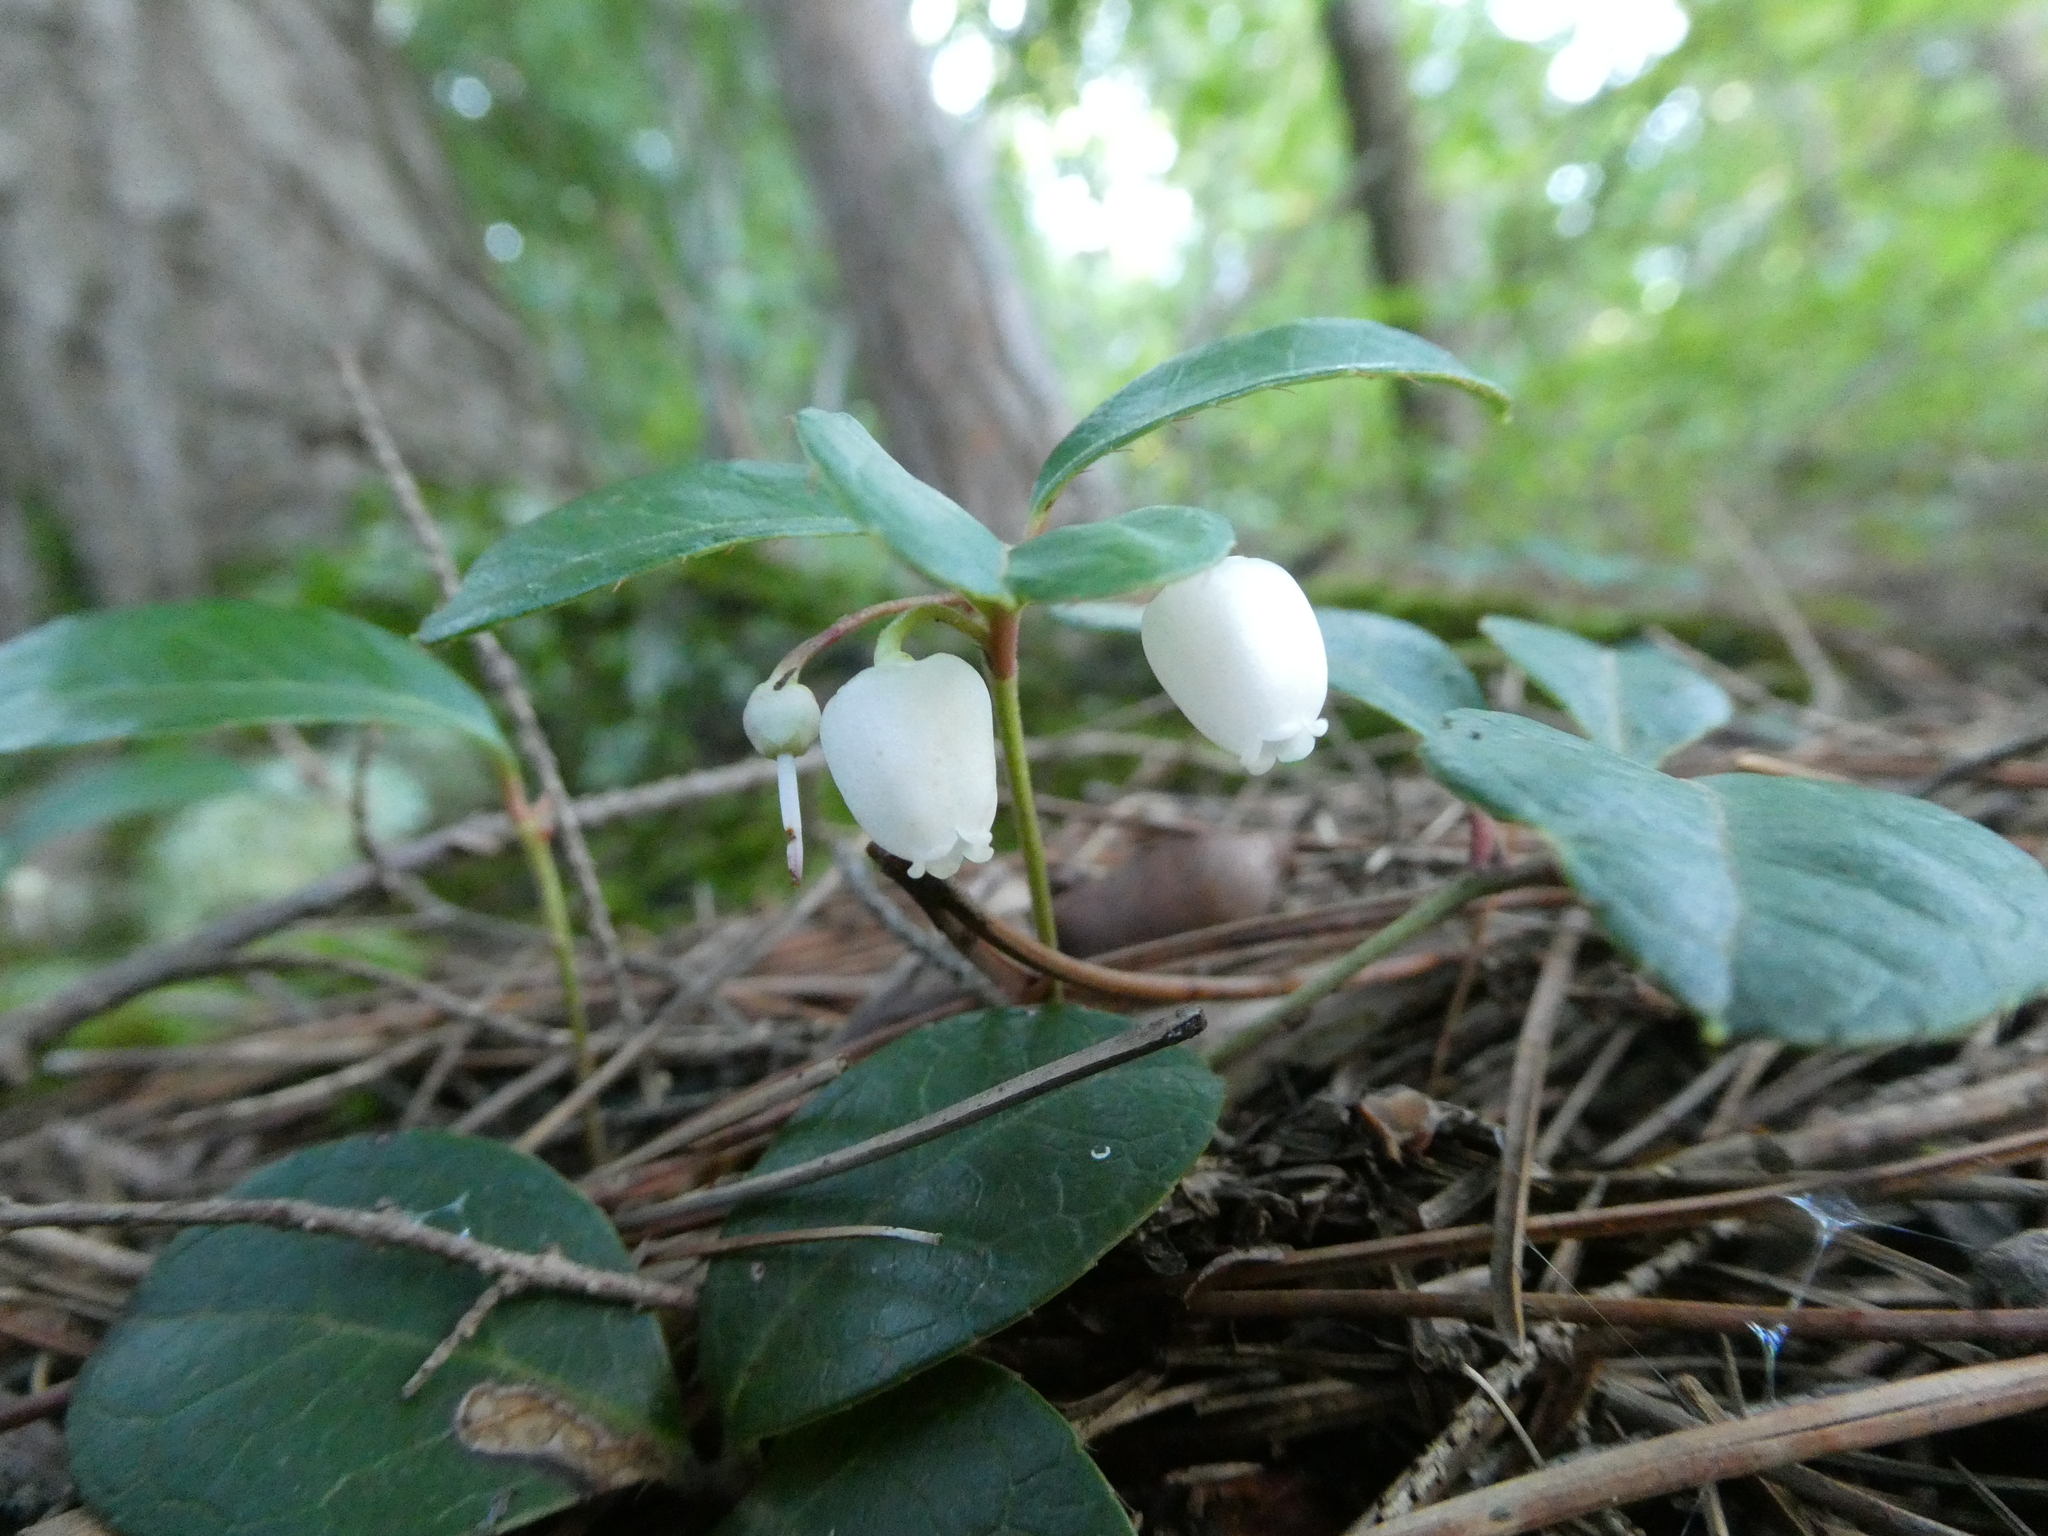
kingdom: Plantae
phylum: Tracheophyta
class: Magnoliopsida
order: Ericales
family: Ericaceae
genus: Gaultheria
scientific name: Gaultheria procumbens
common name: Checkerberry
